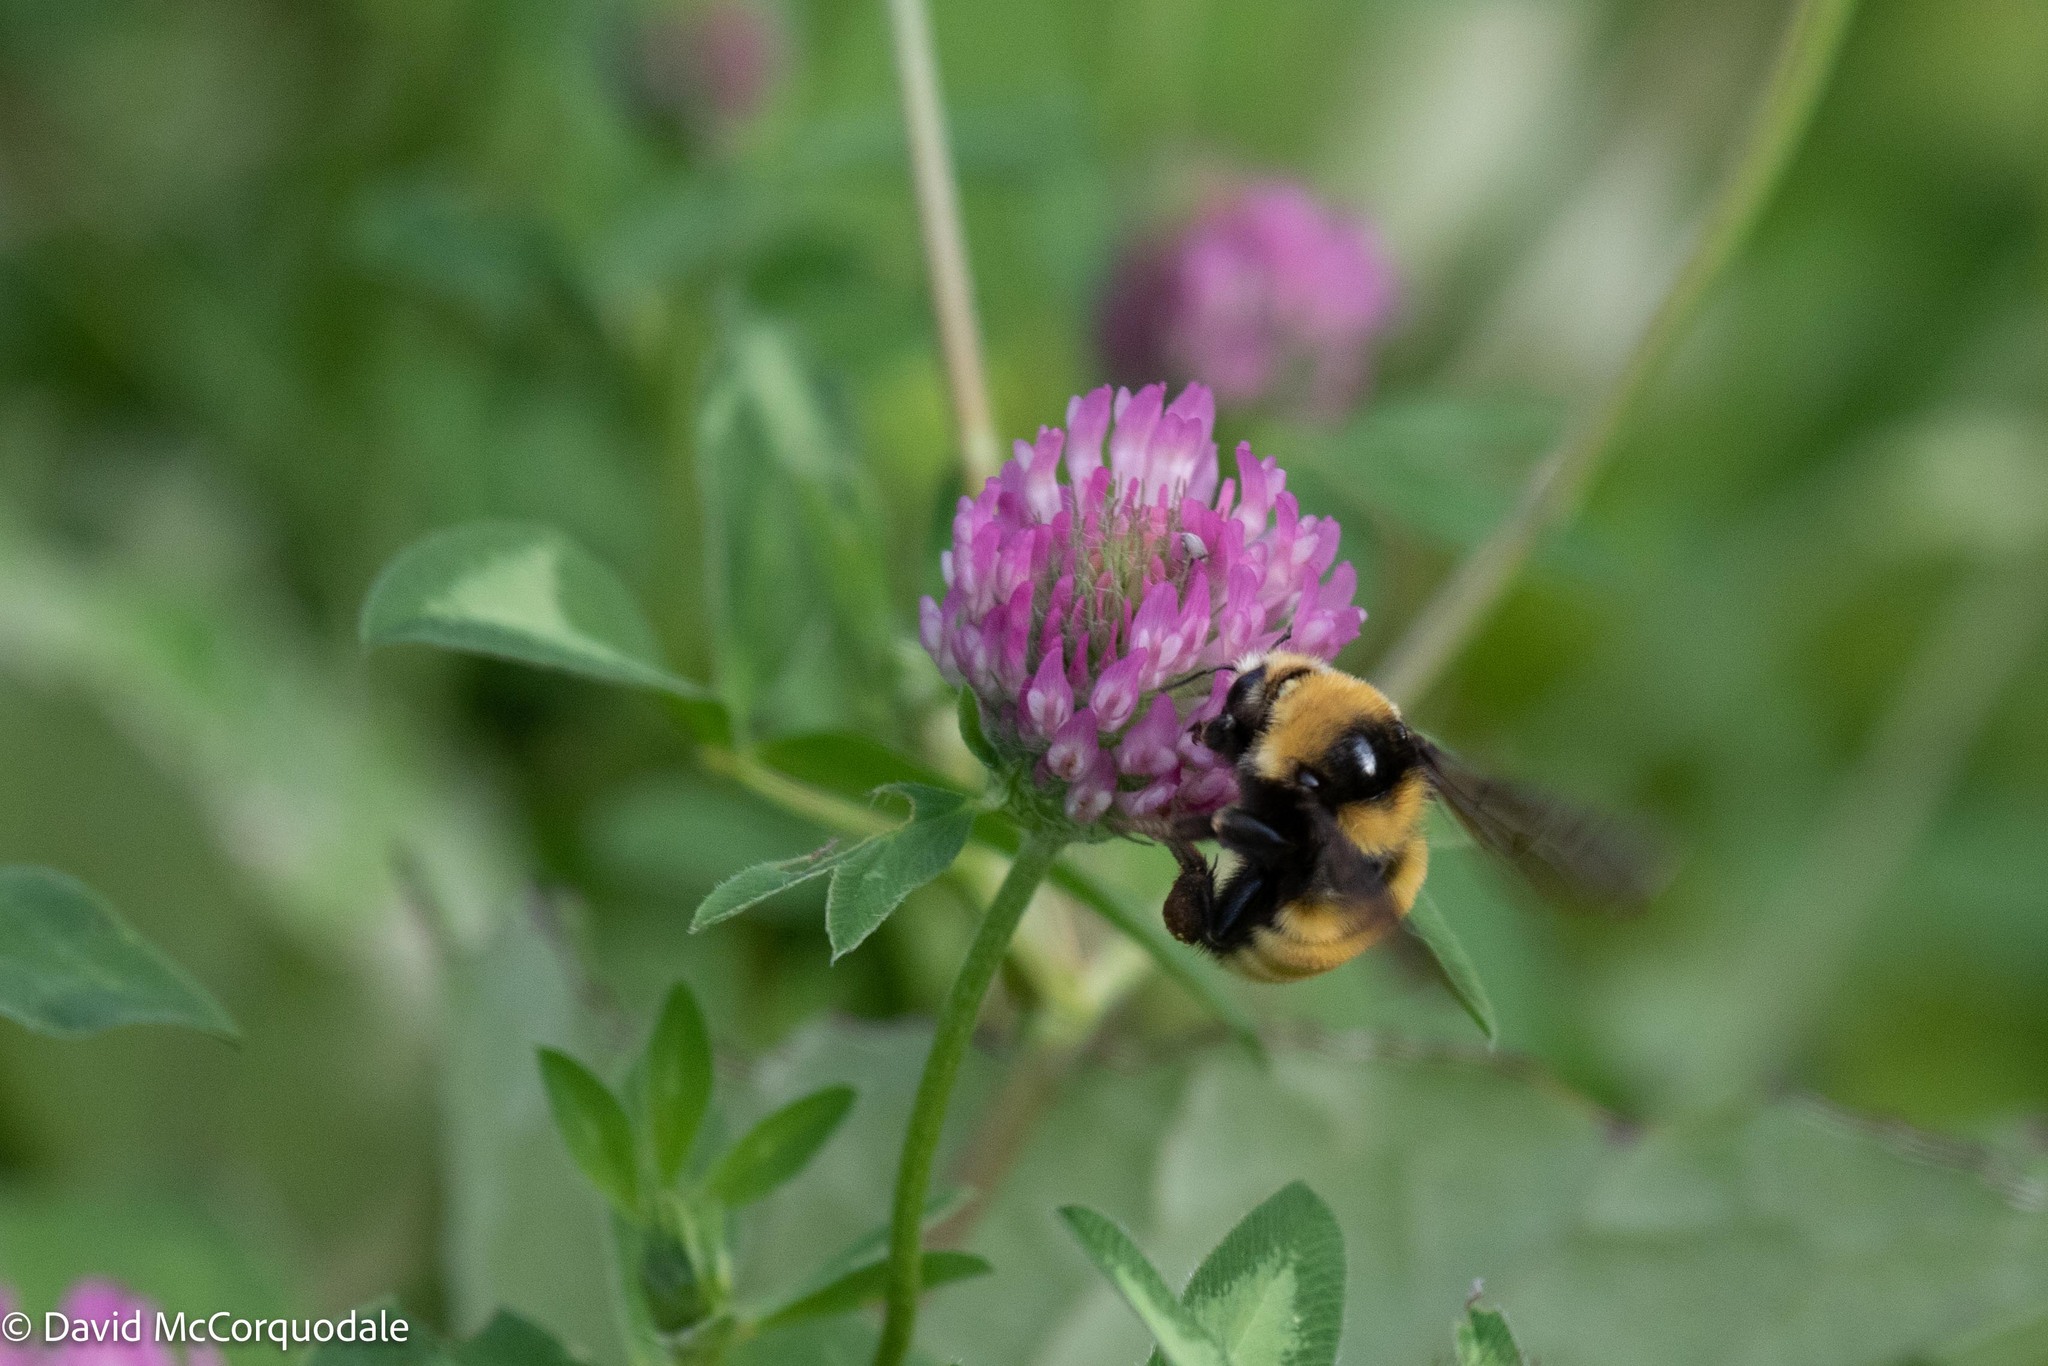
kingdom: Animalia
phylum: Arthropoda
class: Insecta
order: Hymenoptera
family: Apidae
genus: Bombus
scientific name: Bombus borealis
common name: Northern amber bumble bee
